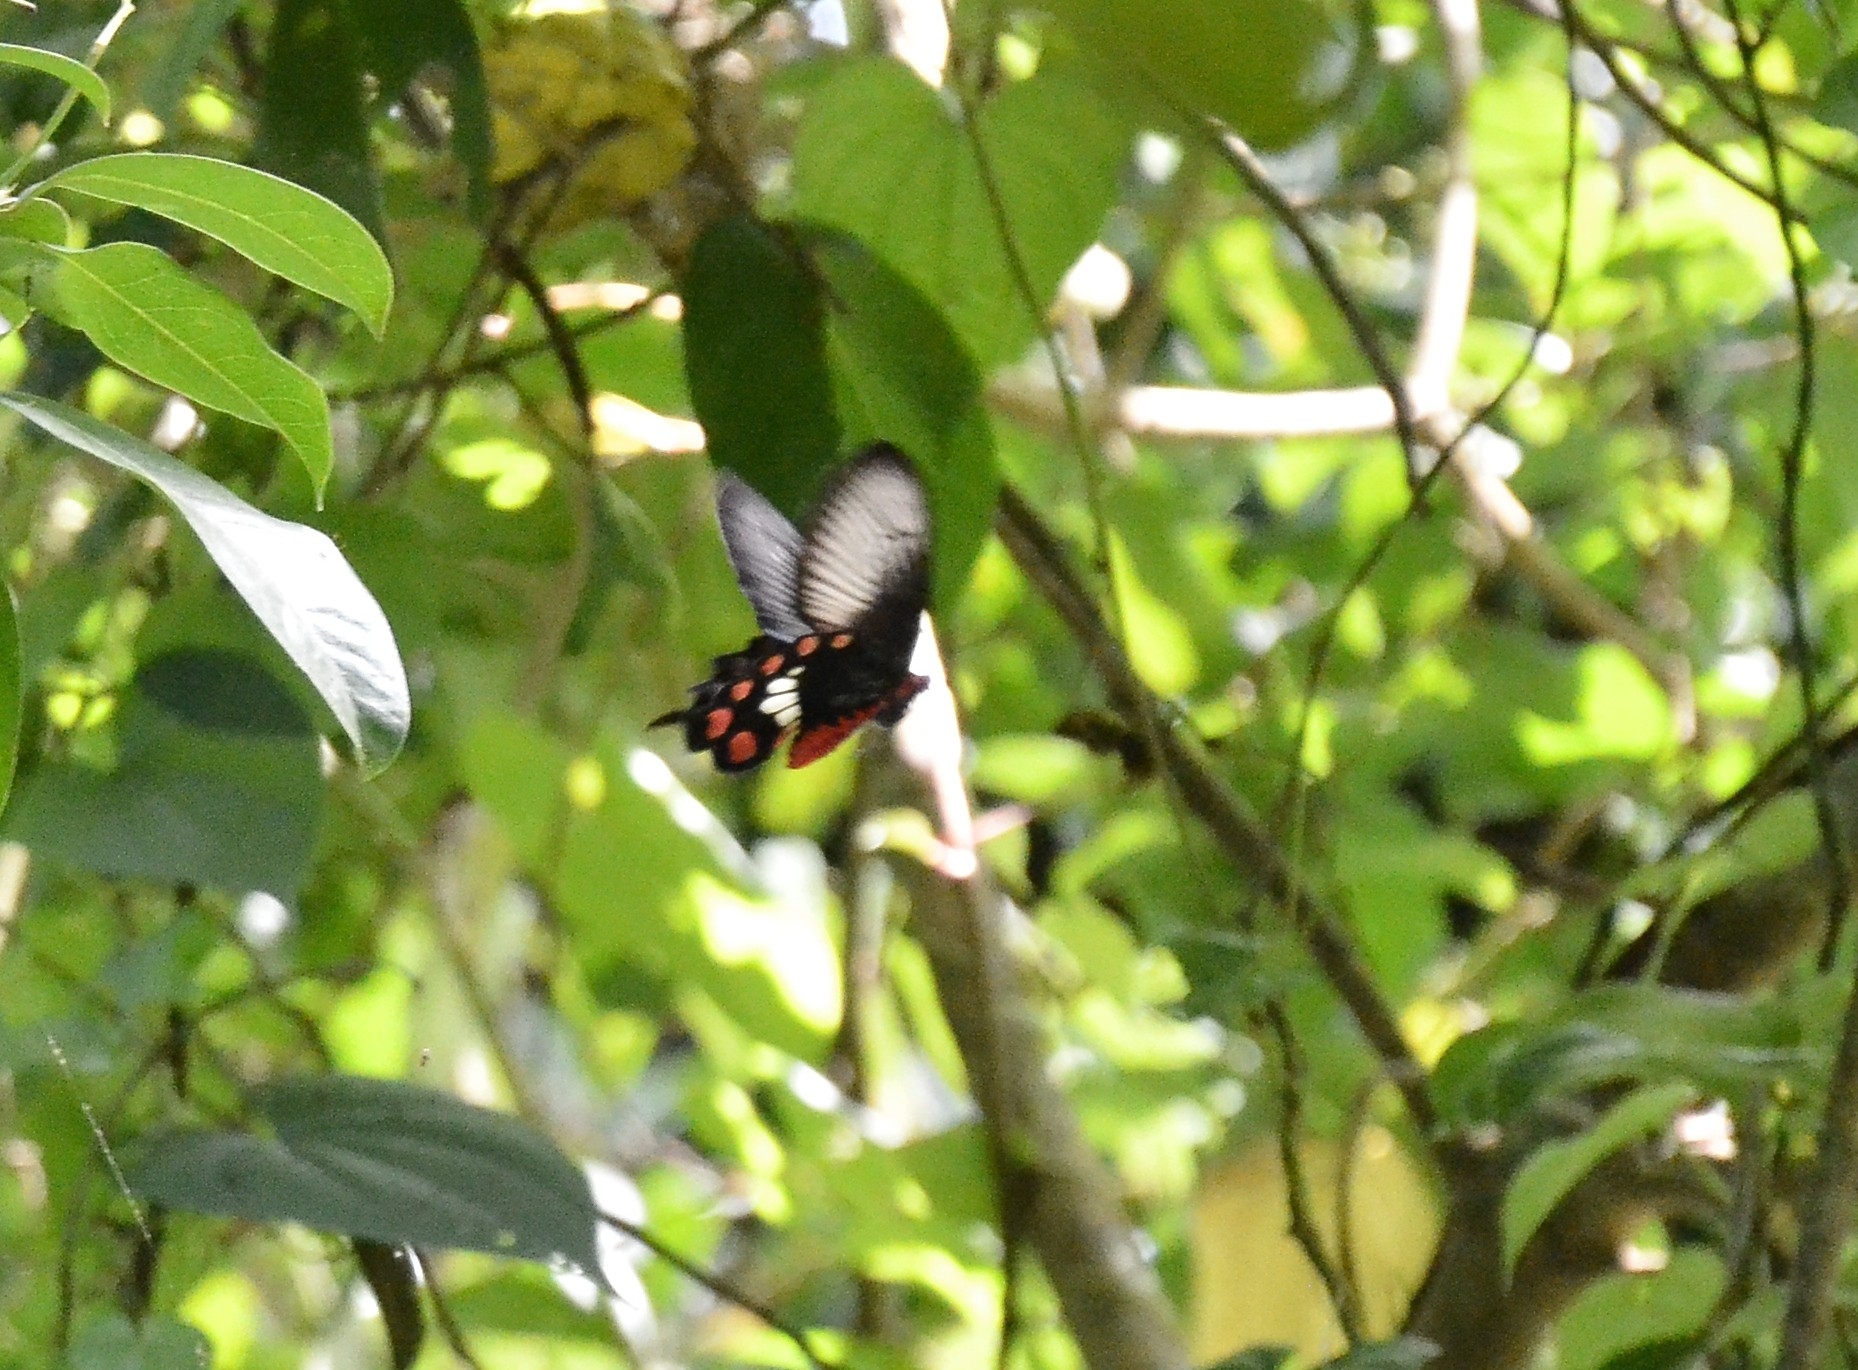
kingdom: Animalia
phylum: Arthropoda
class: Insecta
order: Lepidoptera
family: Papilionidae
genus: Pachliopta
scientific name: Pachliopta aristolochiae
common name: Common rose
